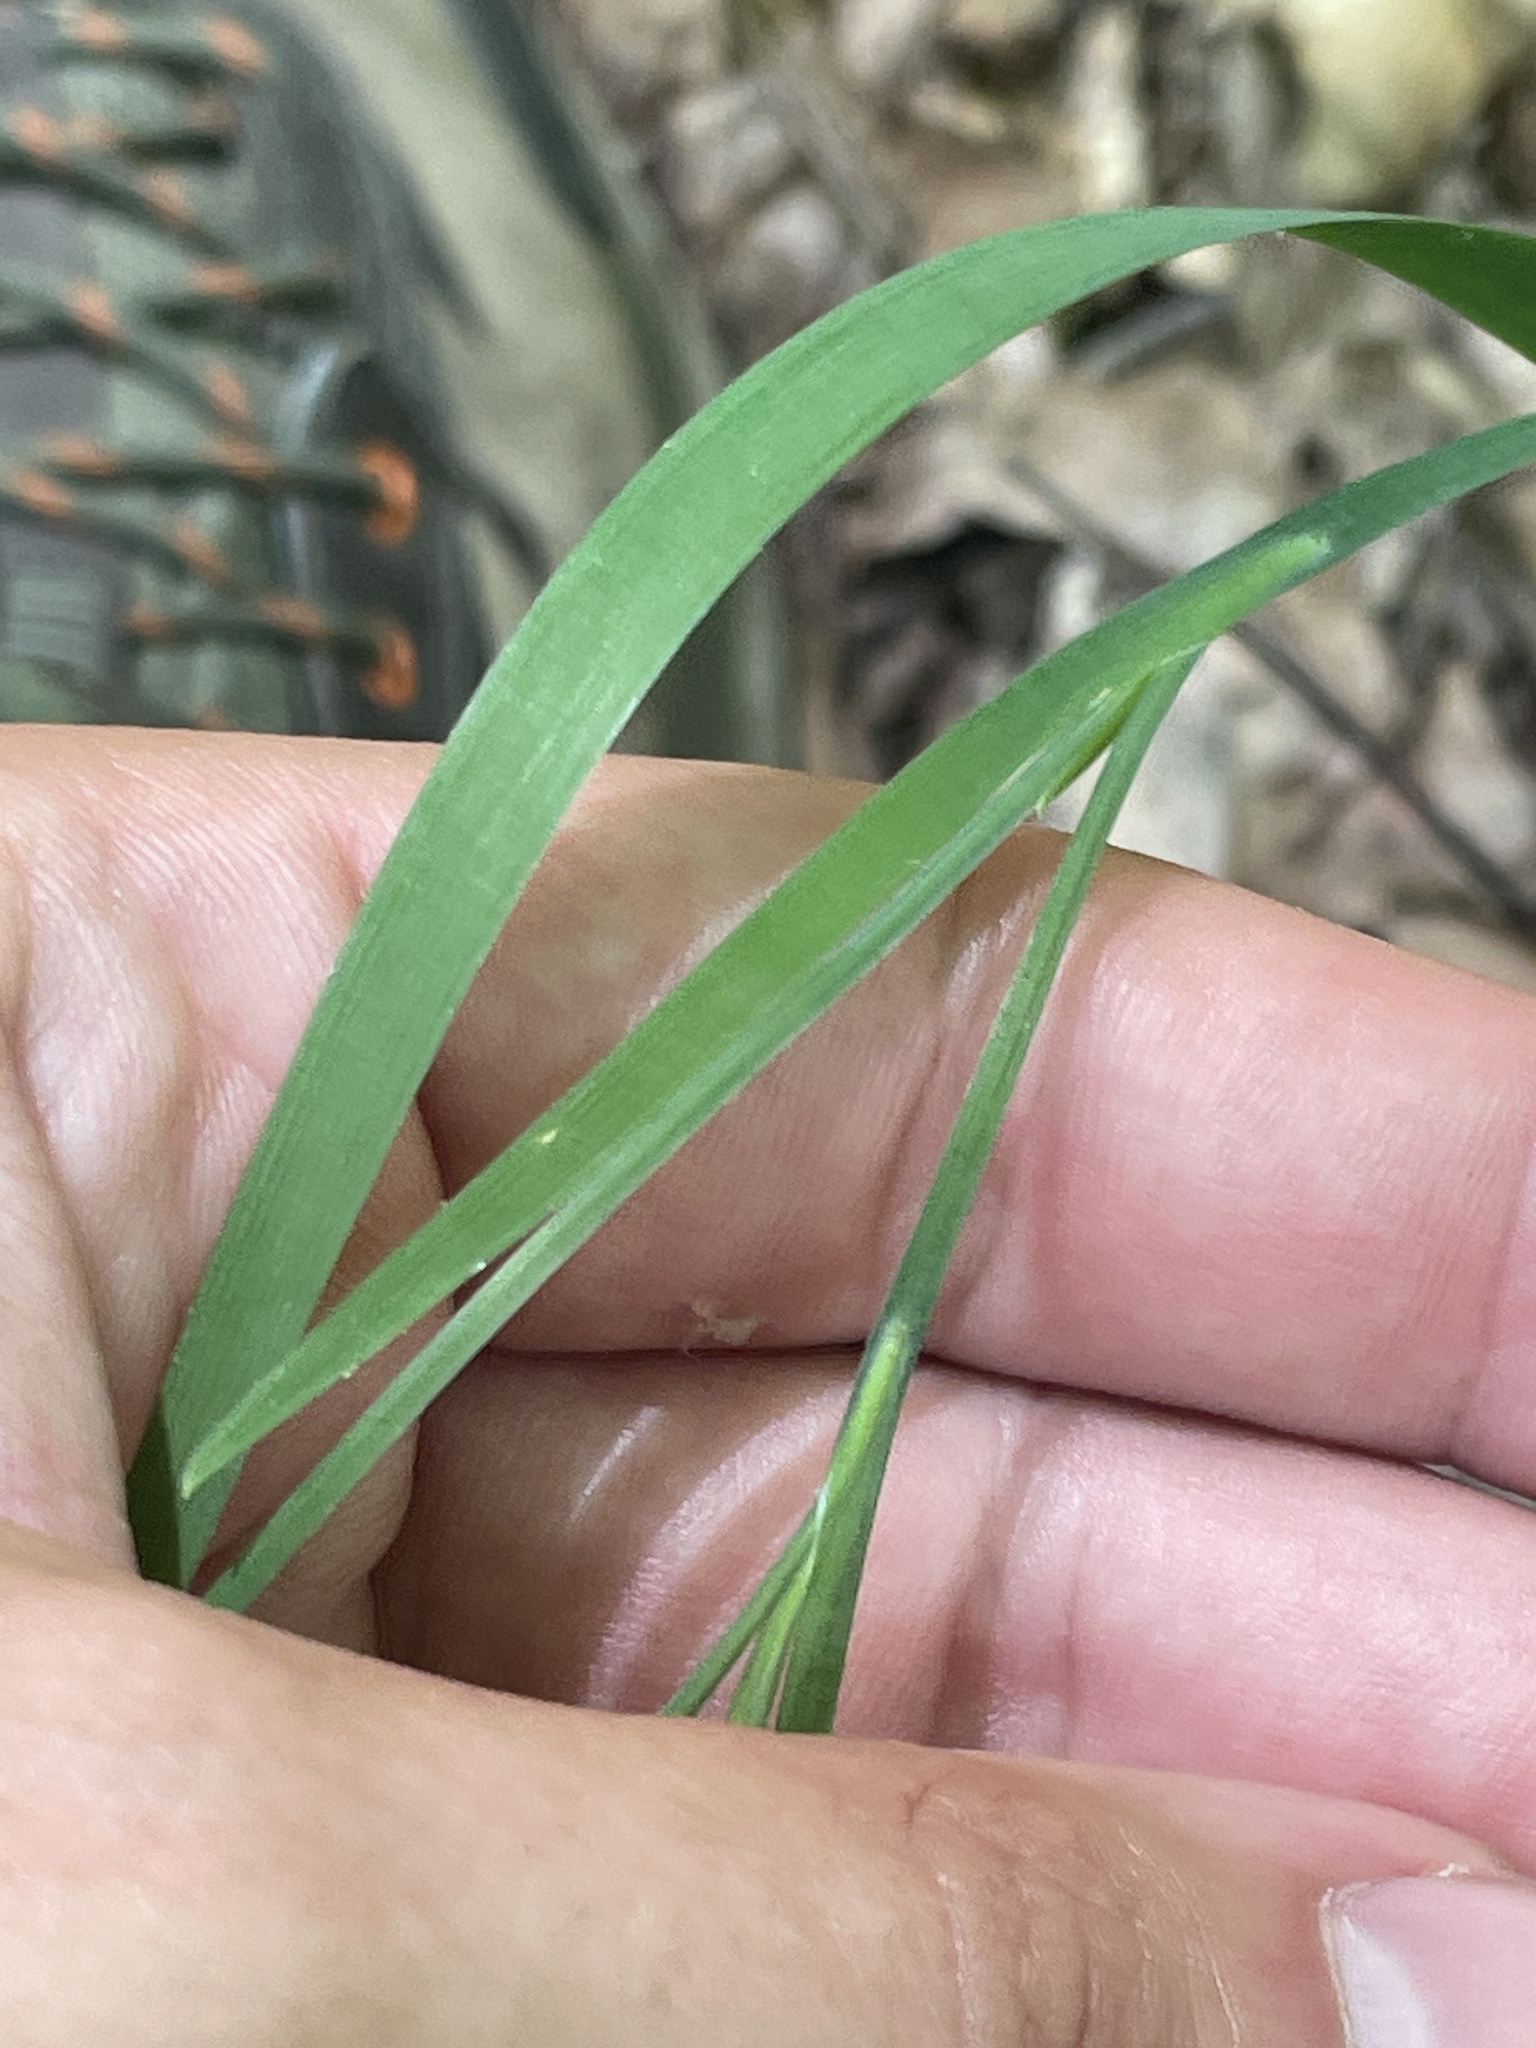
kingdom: Plantae
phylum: Tracheophyta
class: Liliopsida
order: Asparagales
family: Iridaceae
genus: Sisyrinchium
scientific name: Sisyrinchium dichotomum
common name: White irisette
